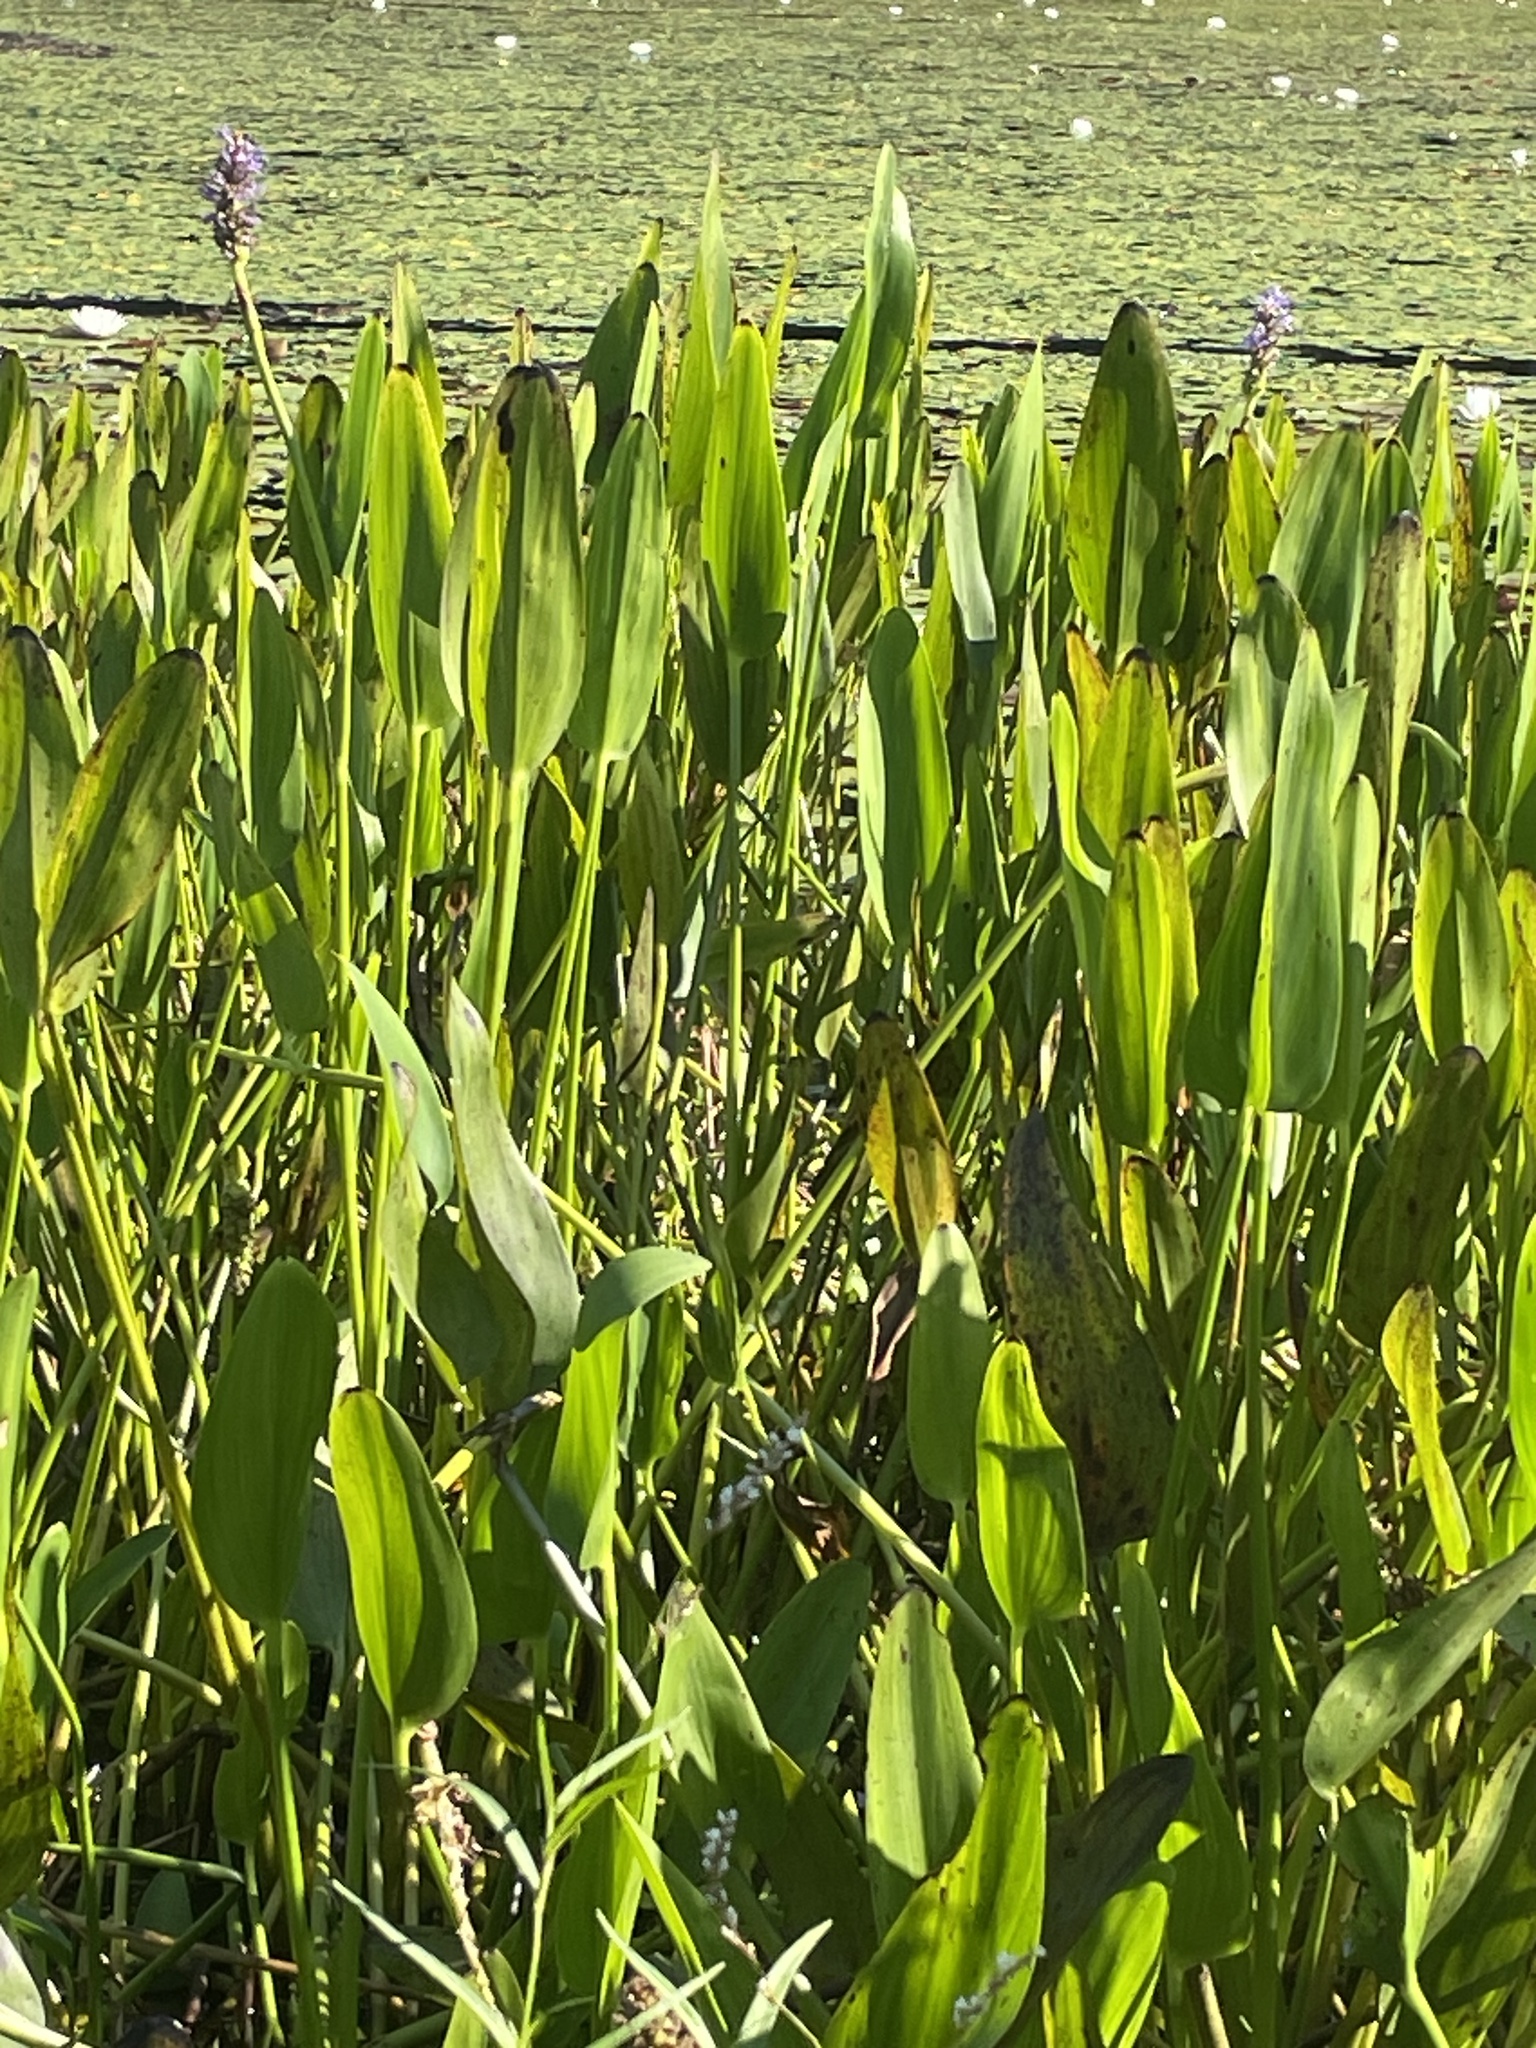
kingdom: Plantae
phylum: Tracheophyta
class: Liliopsida
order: Commelinales
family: Pontederiaceae
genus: Pontederia
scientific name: Pontederia cordata
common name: Pickerelweed
